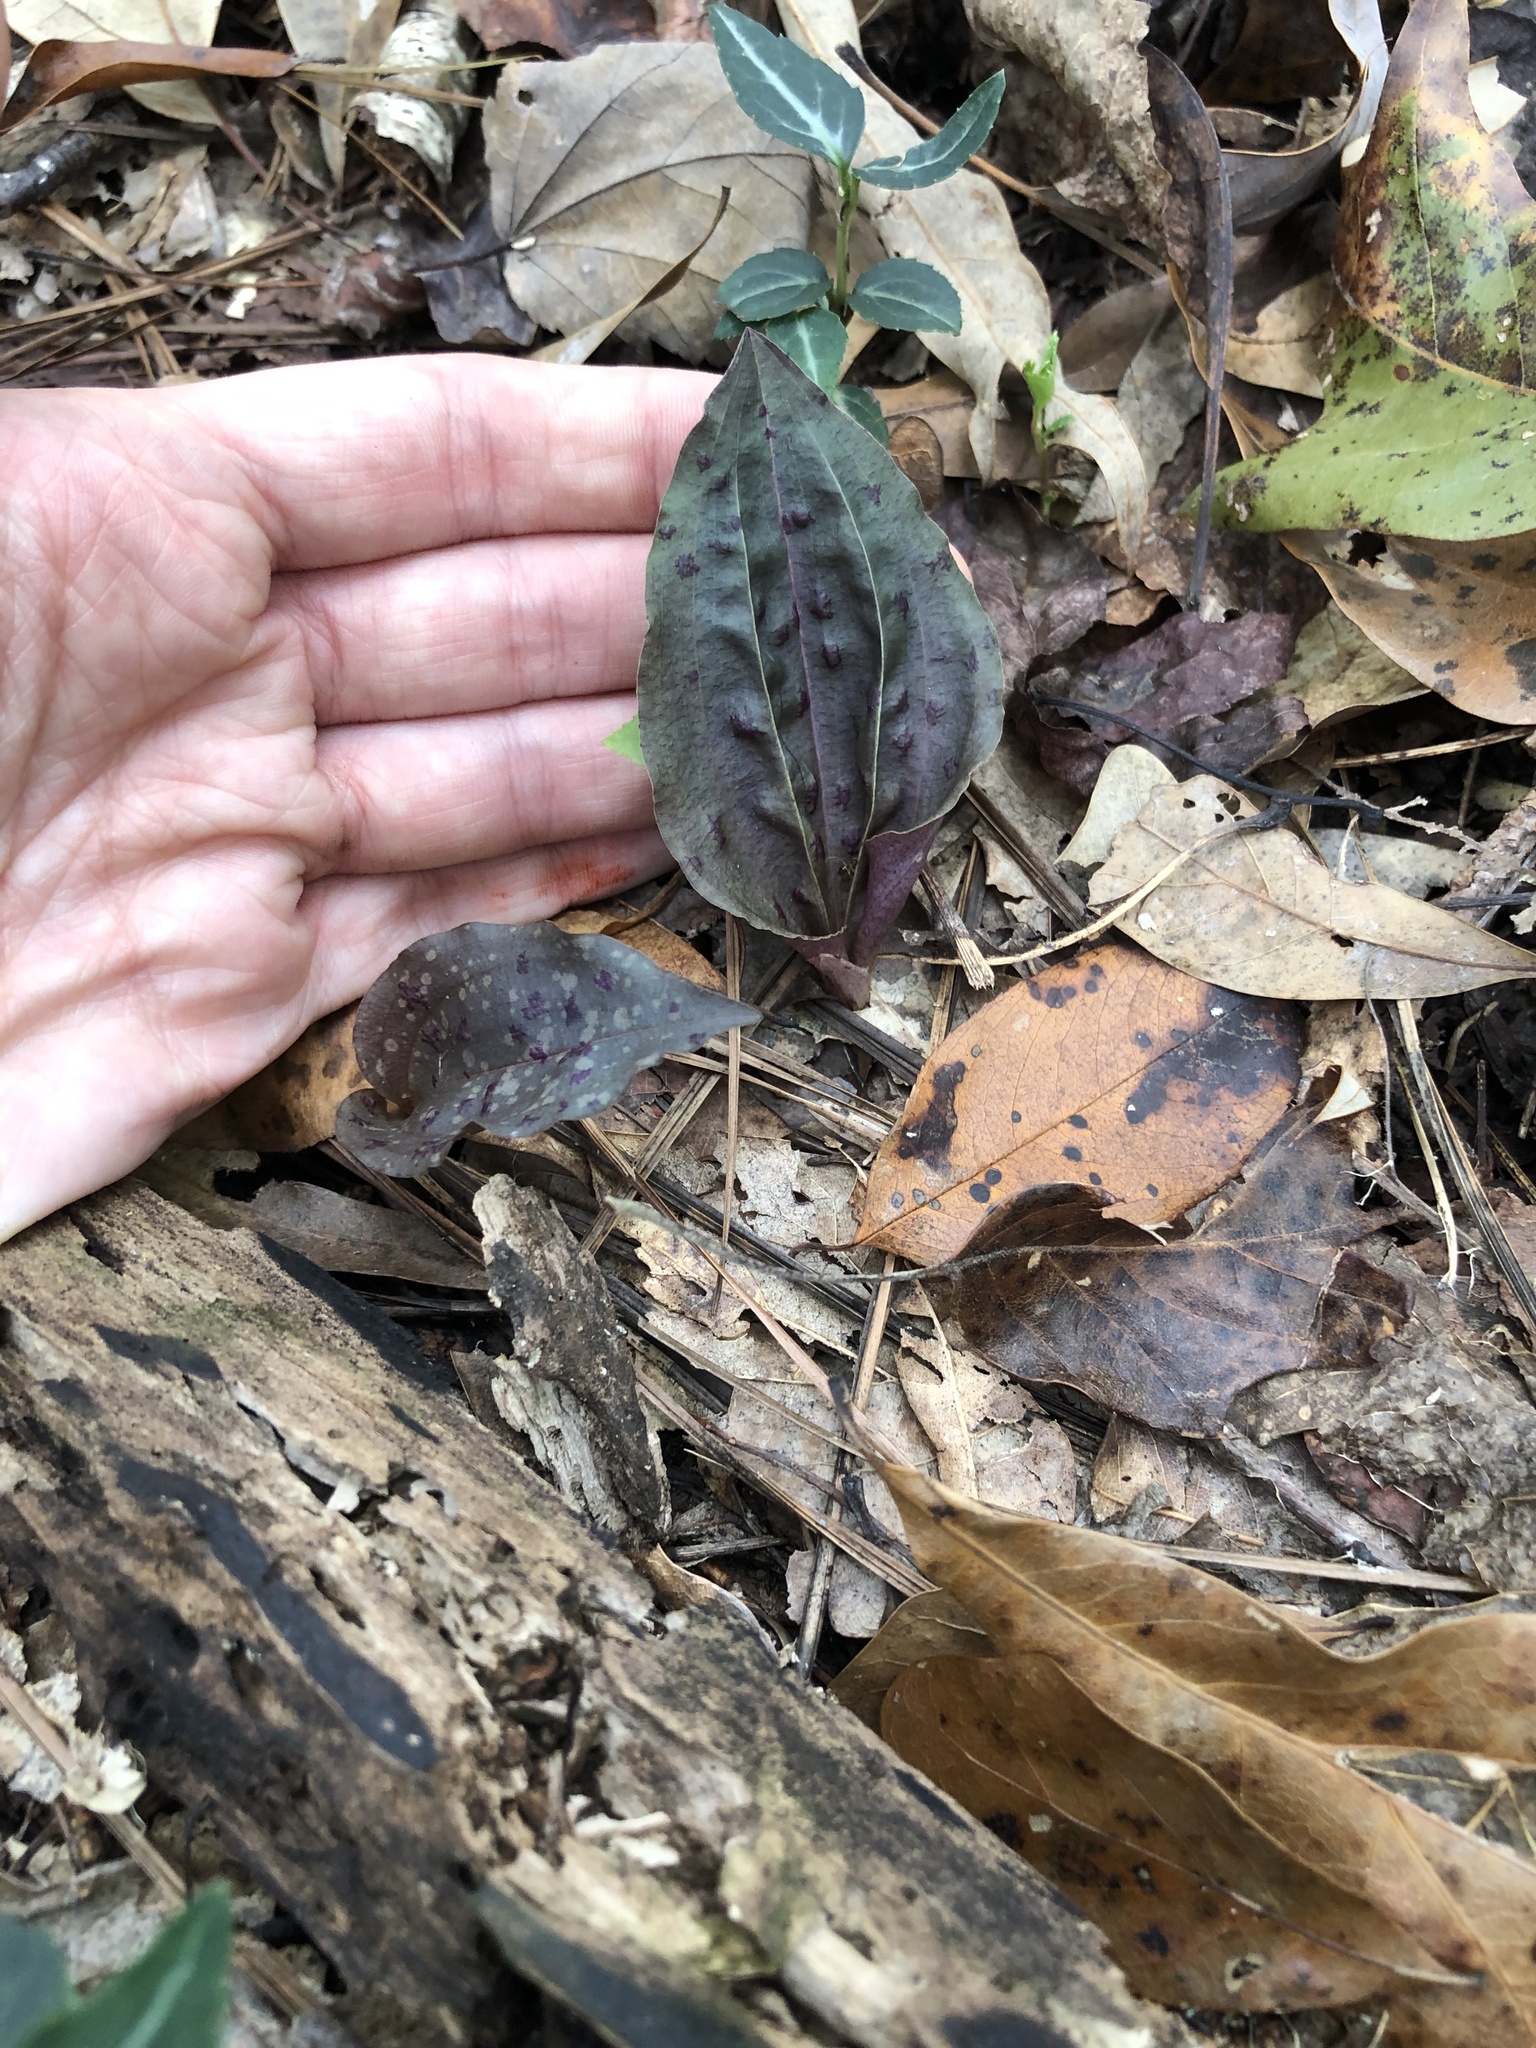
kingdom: Plantae
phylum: Tracheophyta
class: Liliopsida
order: Asparagales
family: Orchidaceae
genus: Tipularia
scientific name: Tipularia discolor
